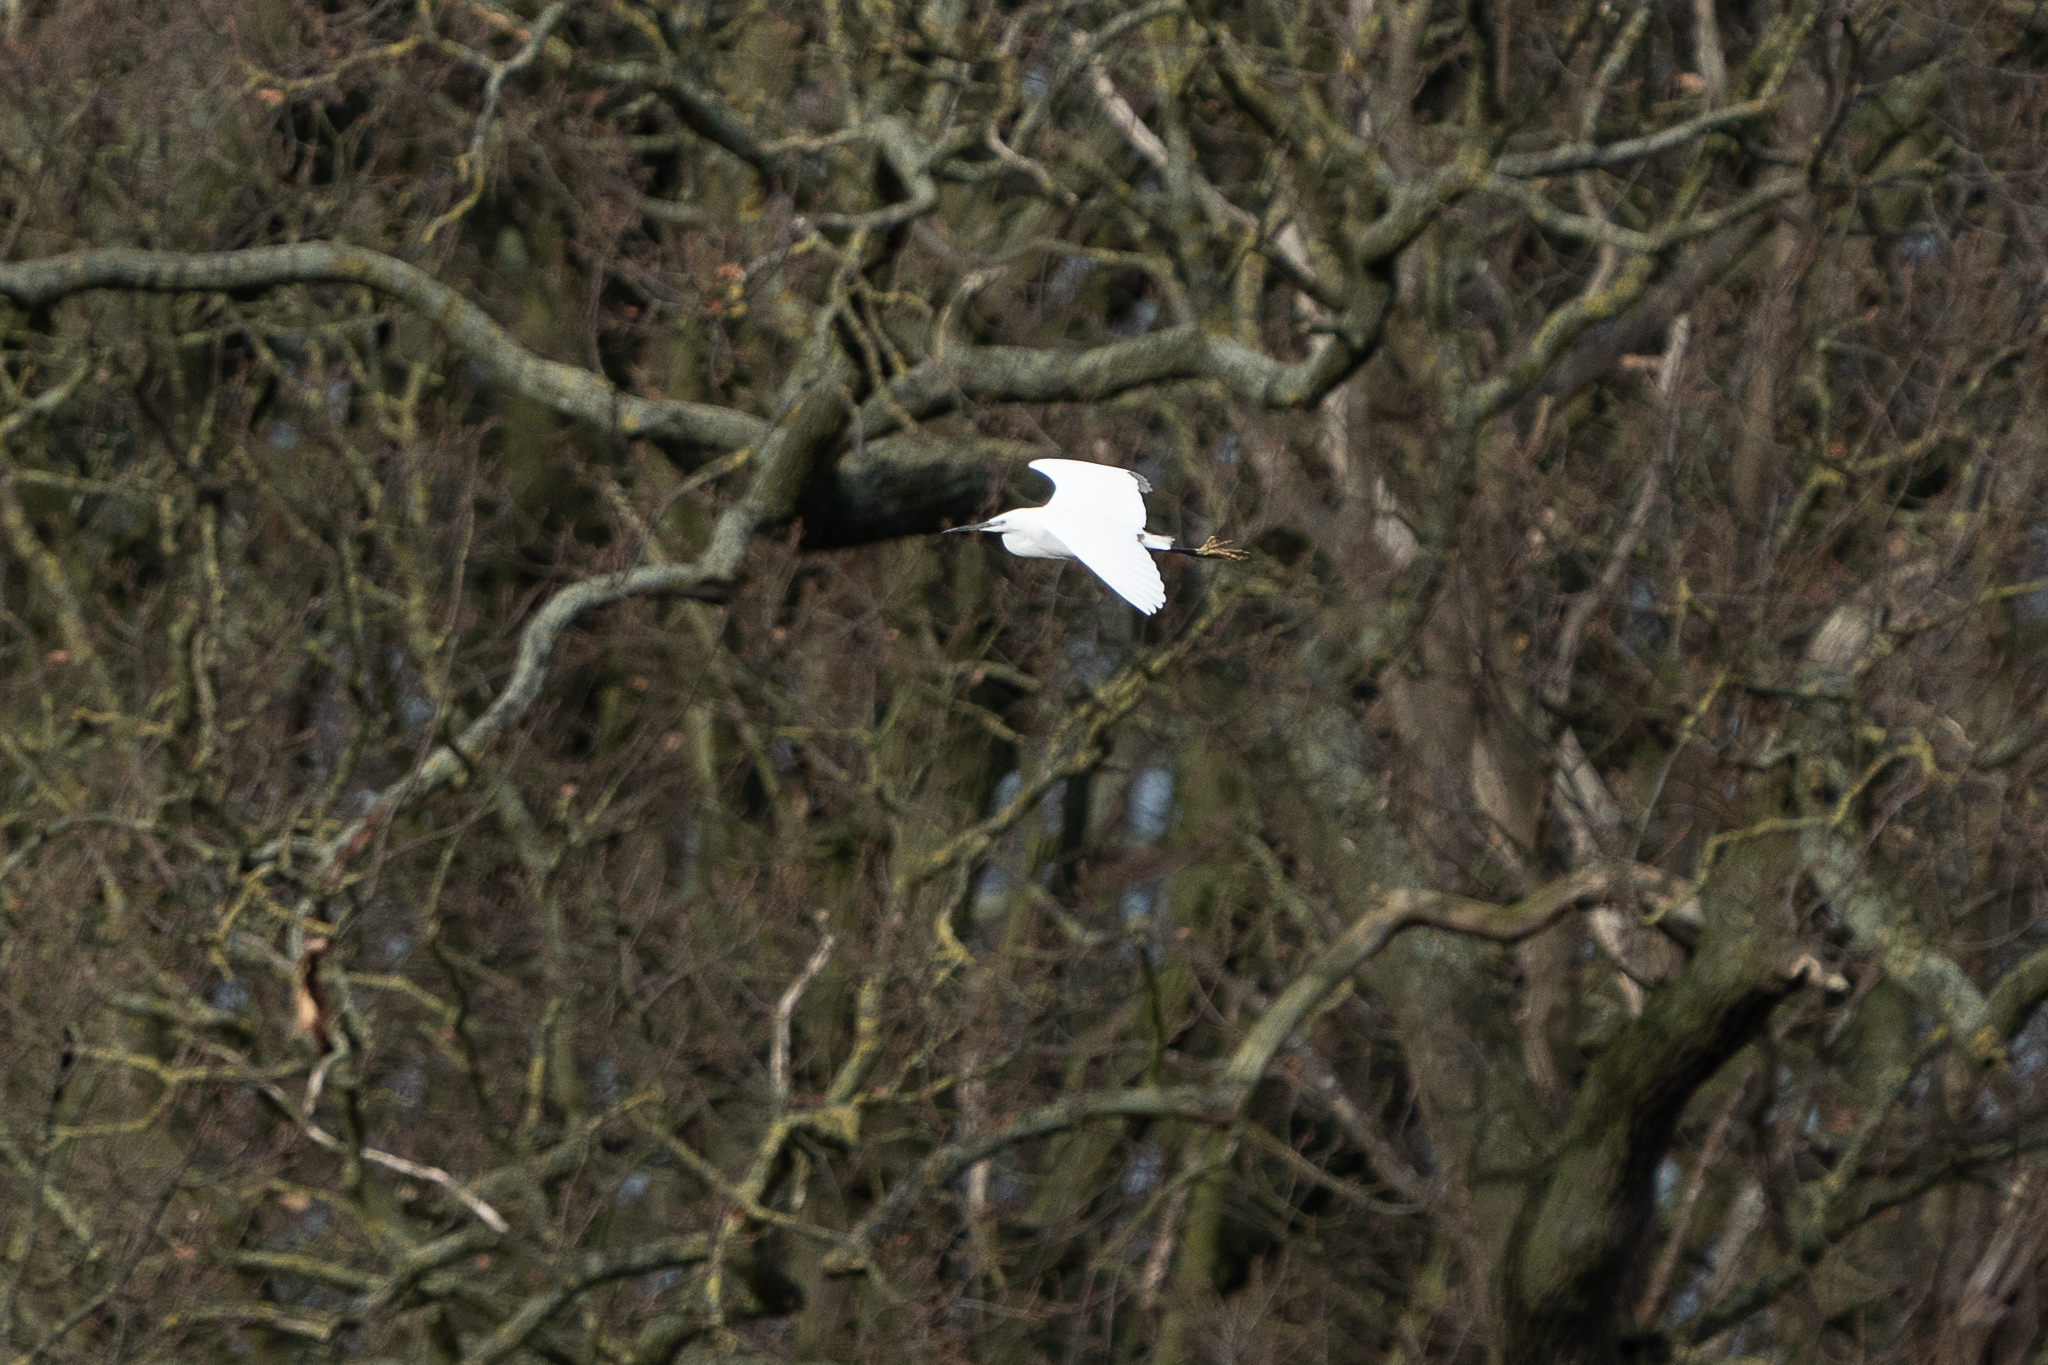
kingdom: Animalia
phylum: Chordata
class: Aves
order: Pelecaniformes
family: Ardeidae
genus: Egretta
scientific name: Egretta garzetta
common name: Little egret
